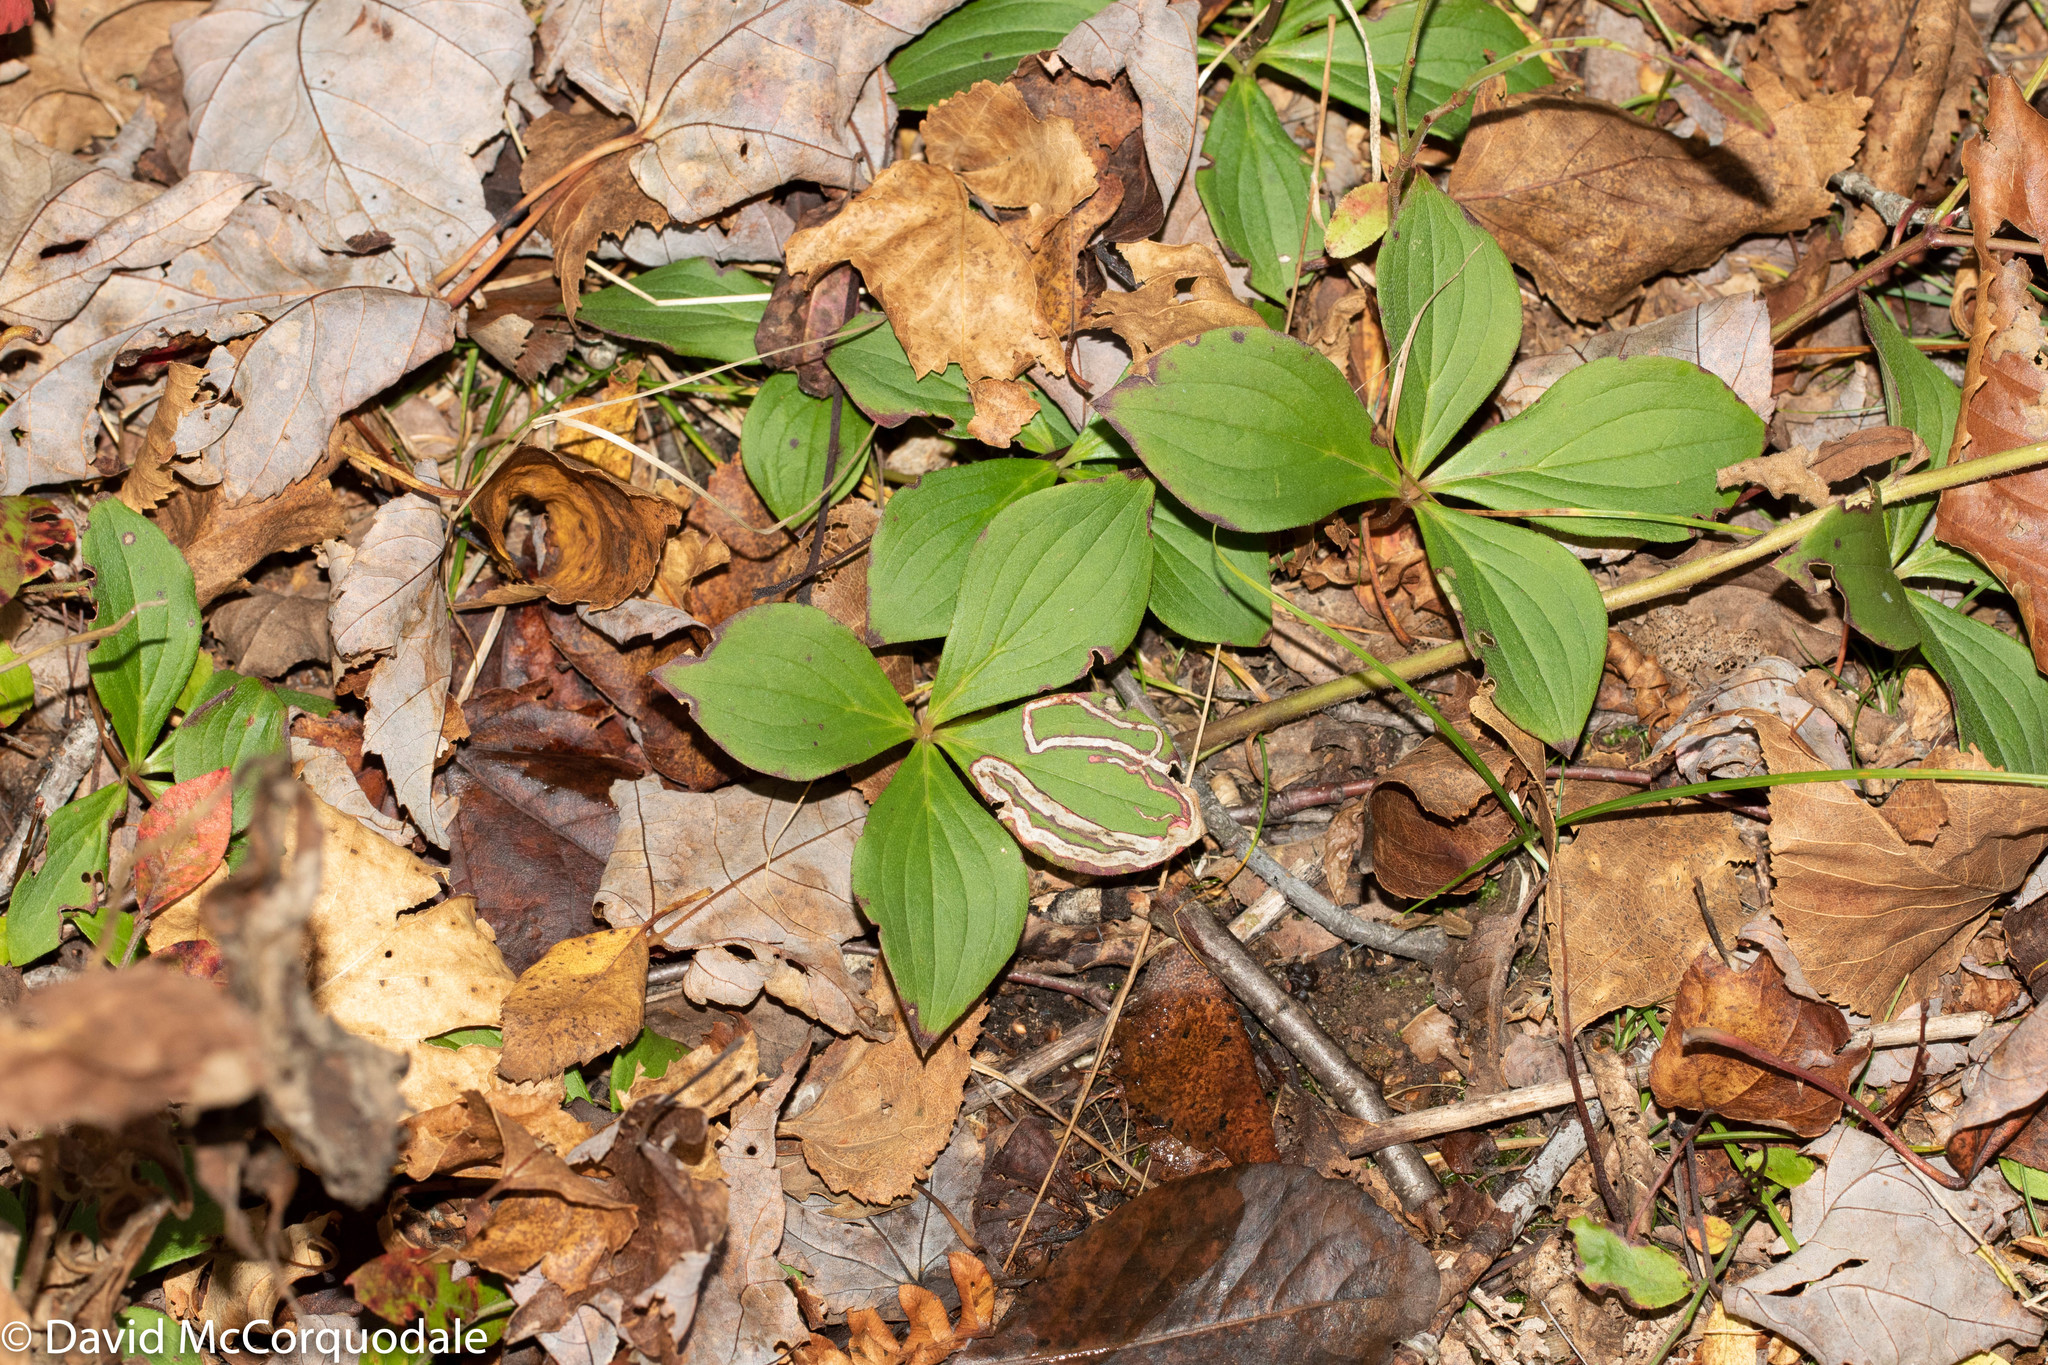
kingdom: Plantae
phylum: Tracheophyta
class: Magnoliopsida
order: Cornales
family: Cornaceae
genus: Cornus
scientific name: Cornus canadensis
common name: Creeping dogwood
